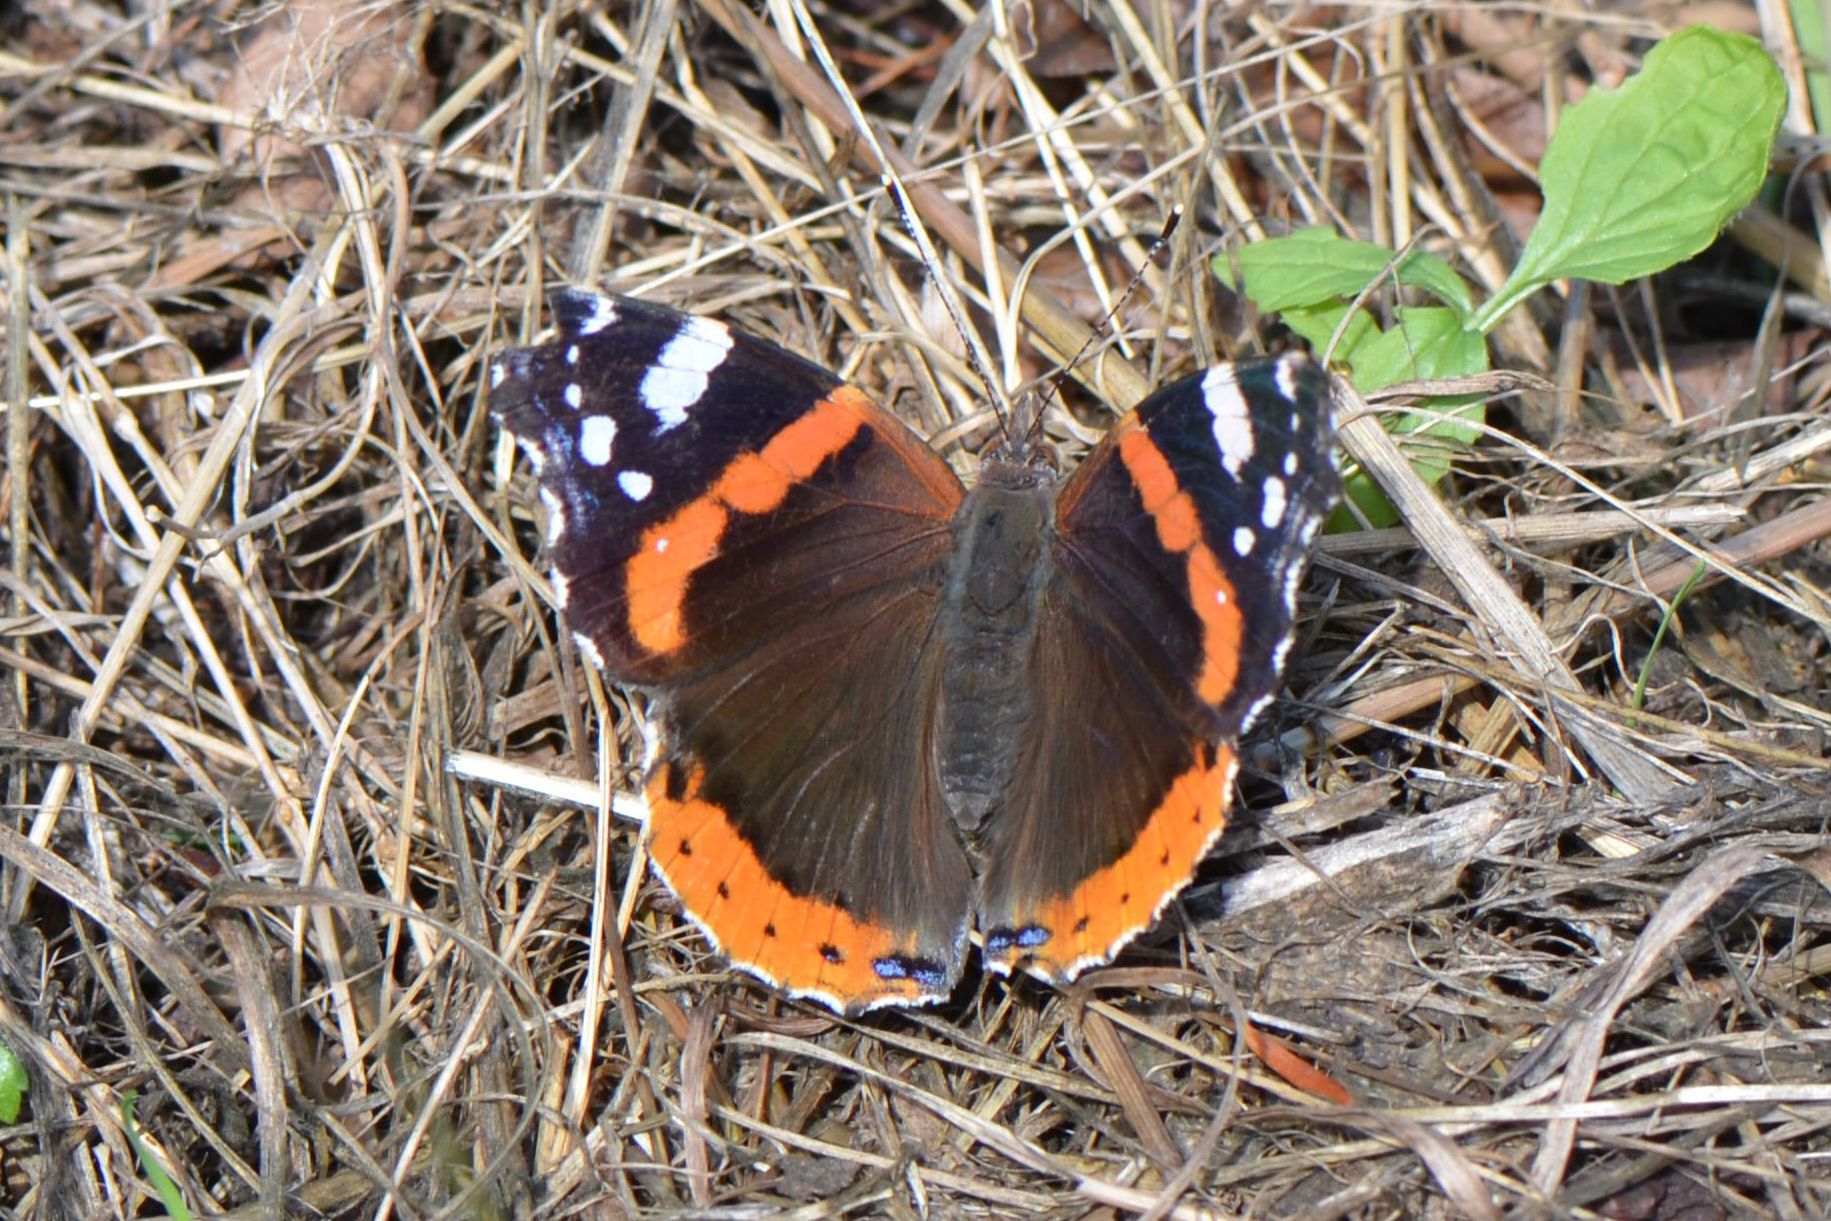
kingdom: Animalia
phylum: Arthropoda
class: Insecta
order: Lepidoptera
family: Nymphalidae
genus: Vanessa
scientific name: Vanessa atalanta
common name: Red admiral
